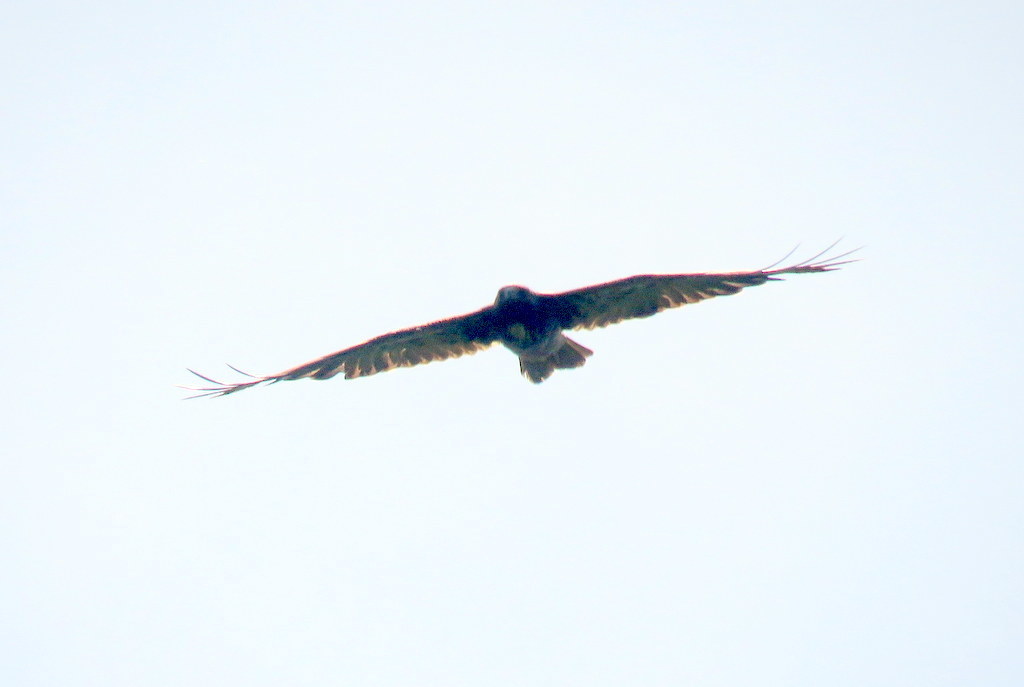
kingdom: Animalia
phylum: Chordata
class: Aves
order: Accipitriformes
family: Accipitridae
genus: Buteo
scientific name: Buteo albicaudatus
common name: White-tailed hawk
